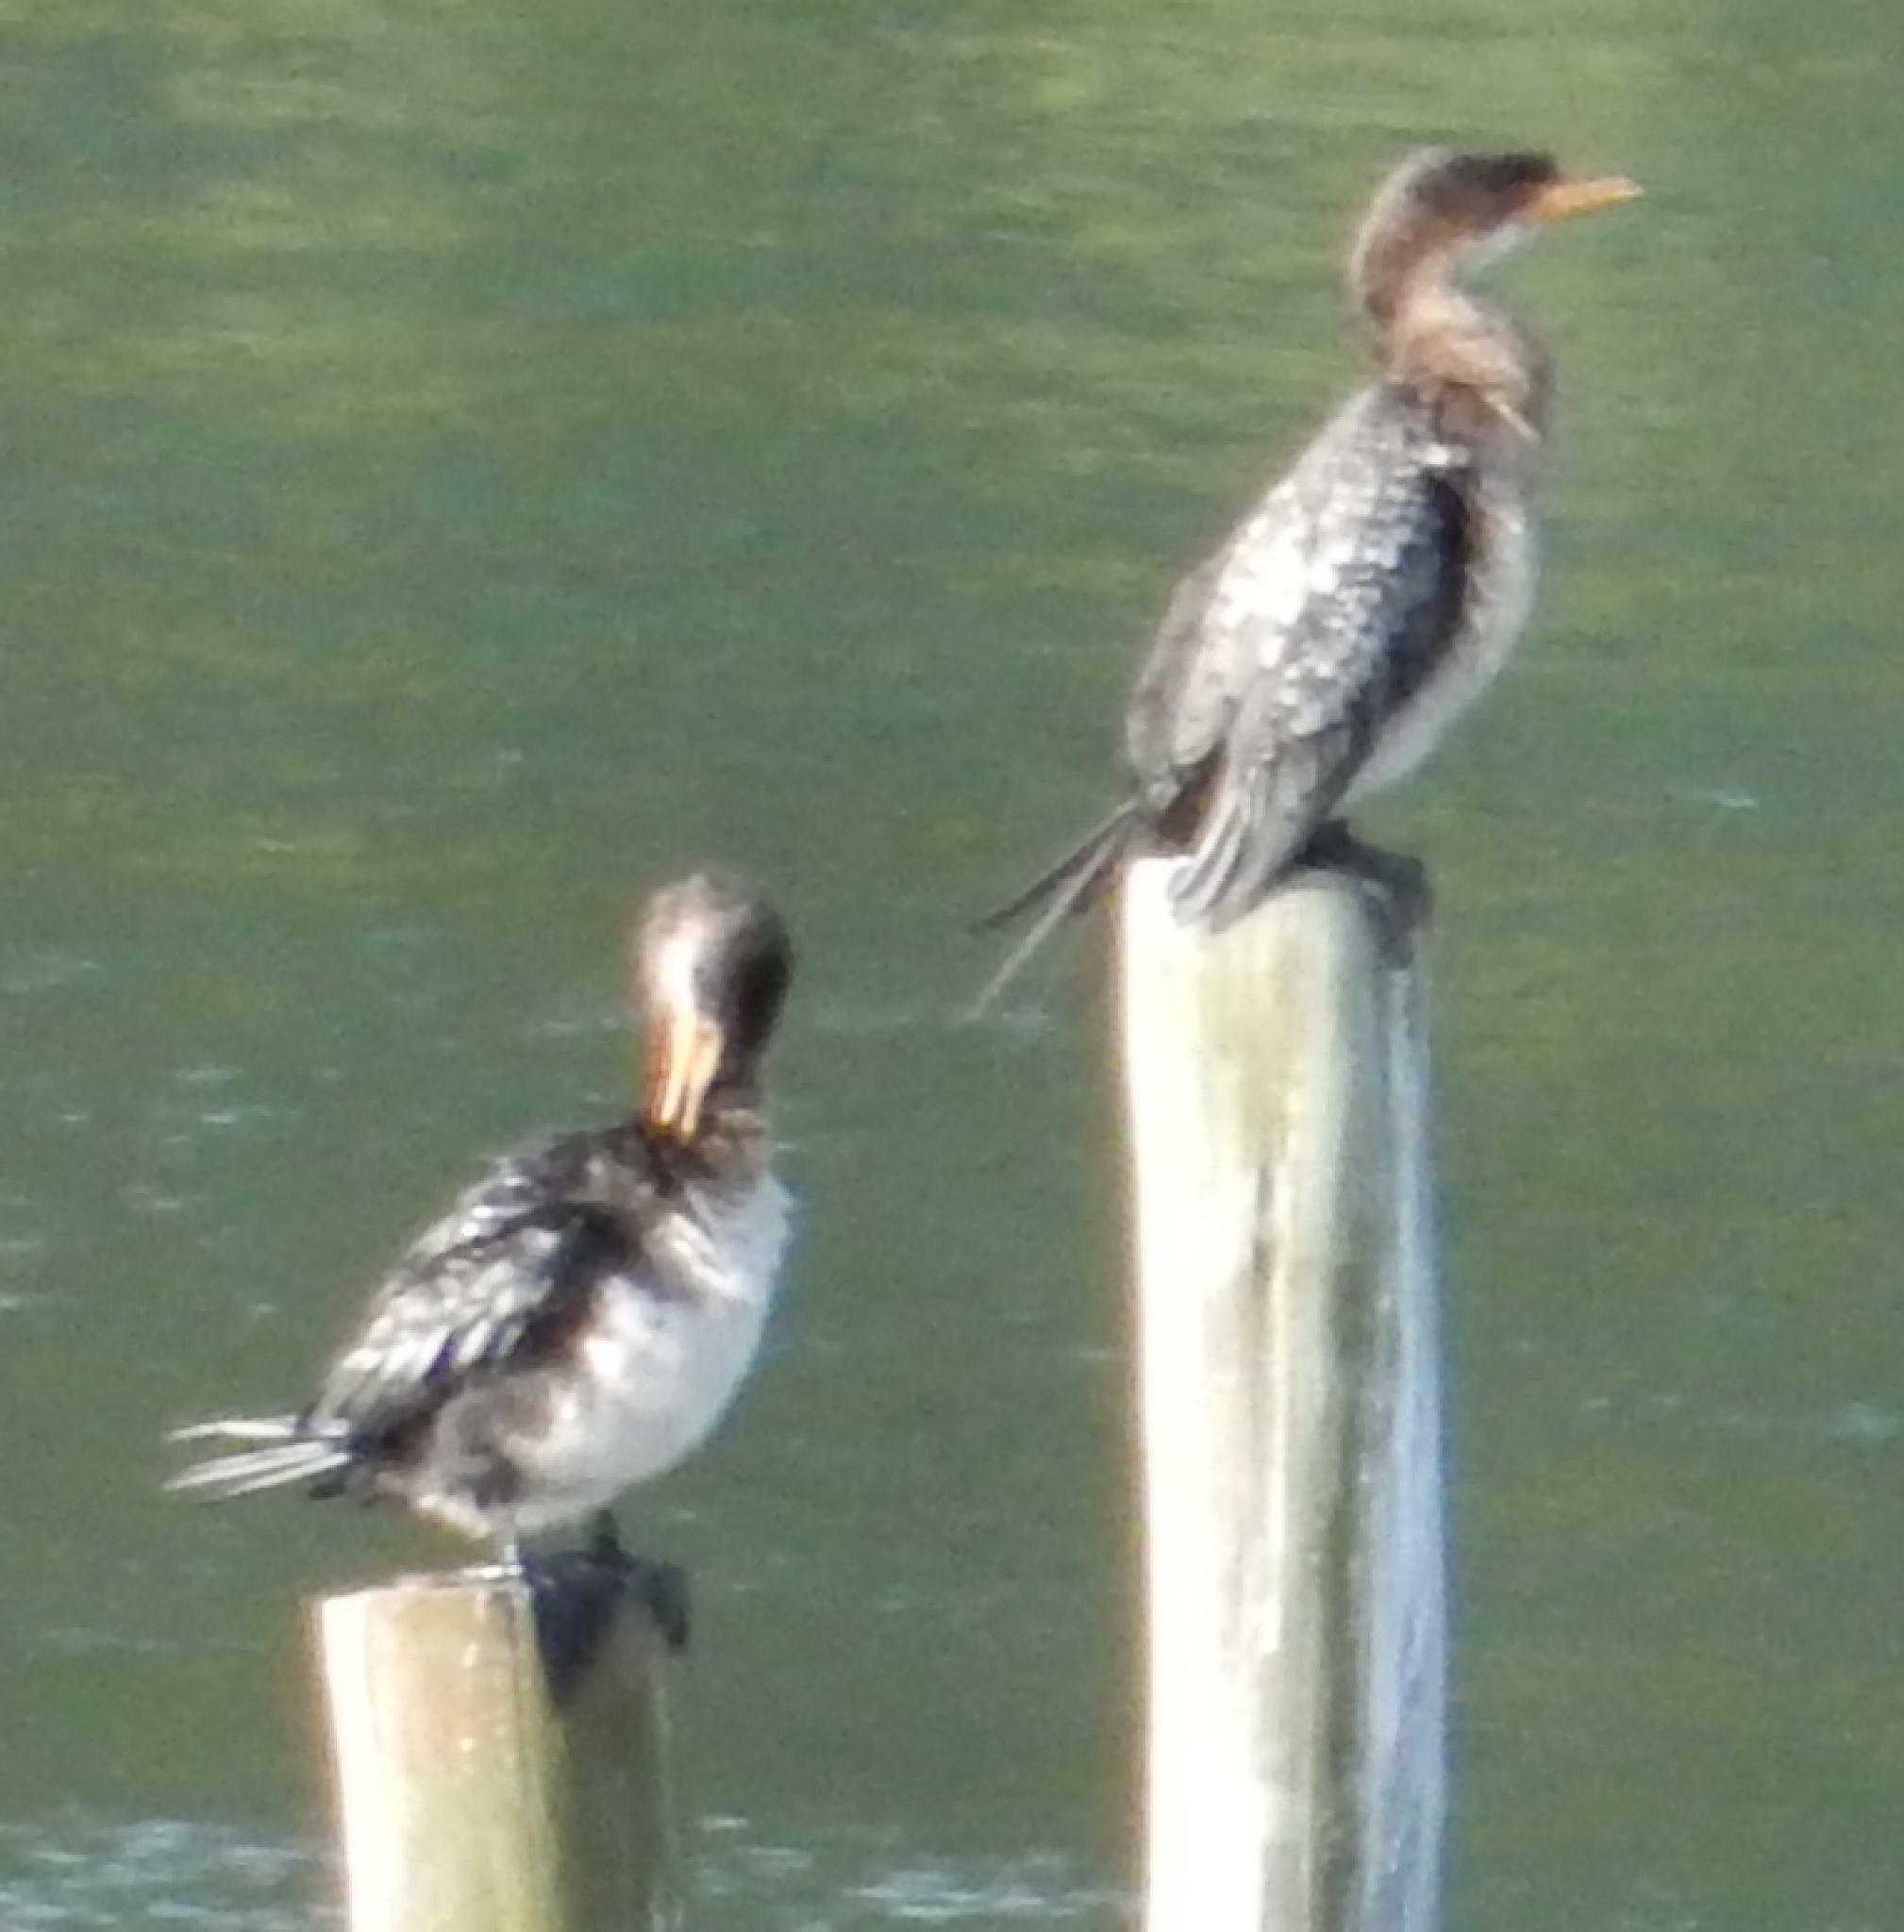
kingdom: Animalia
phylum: Chordata
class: Aves
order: Suliformes
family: Phalacrocoracidae
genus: Microcarbo
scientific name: Microcarbo africanus
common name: Long-tailed cormorant
